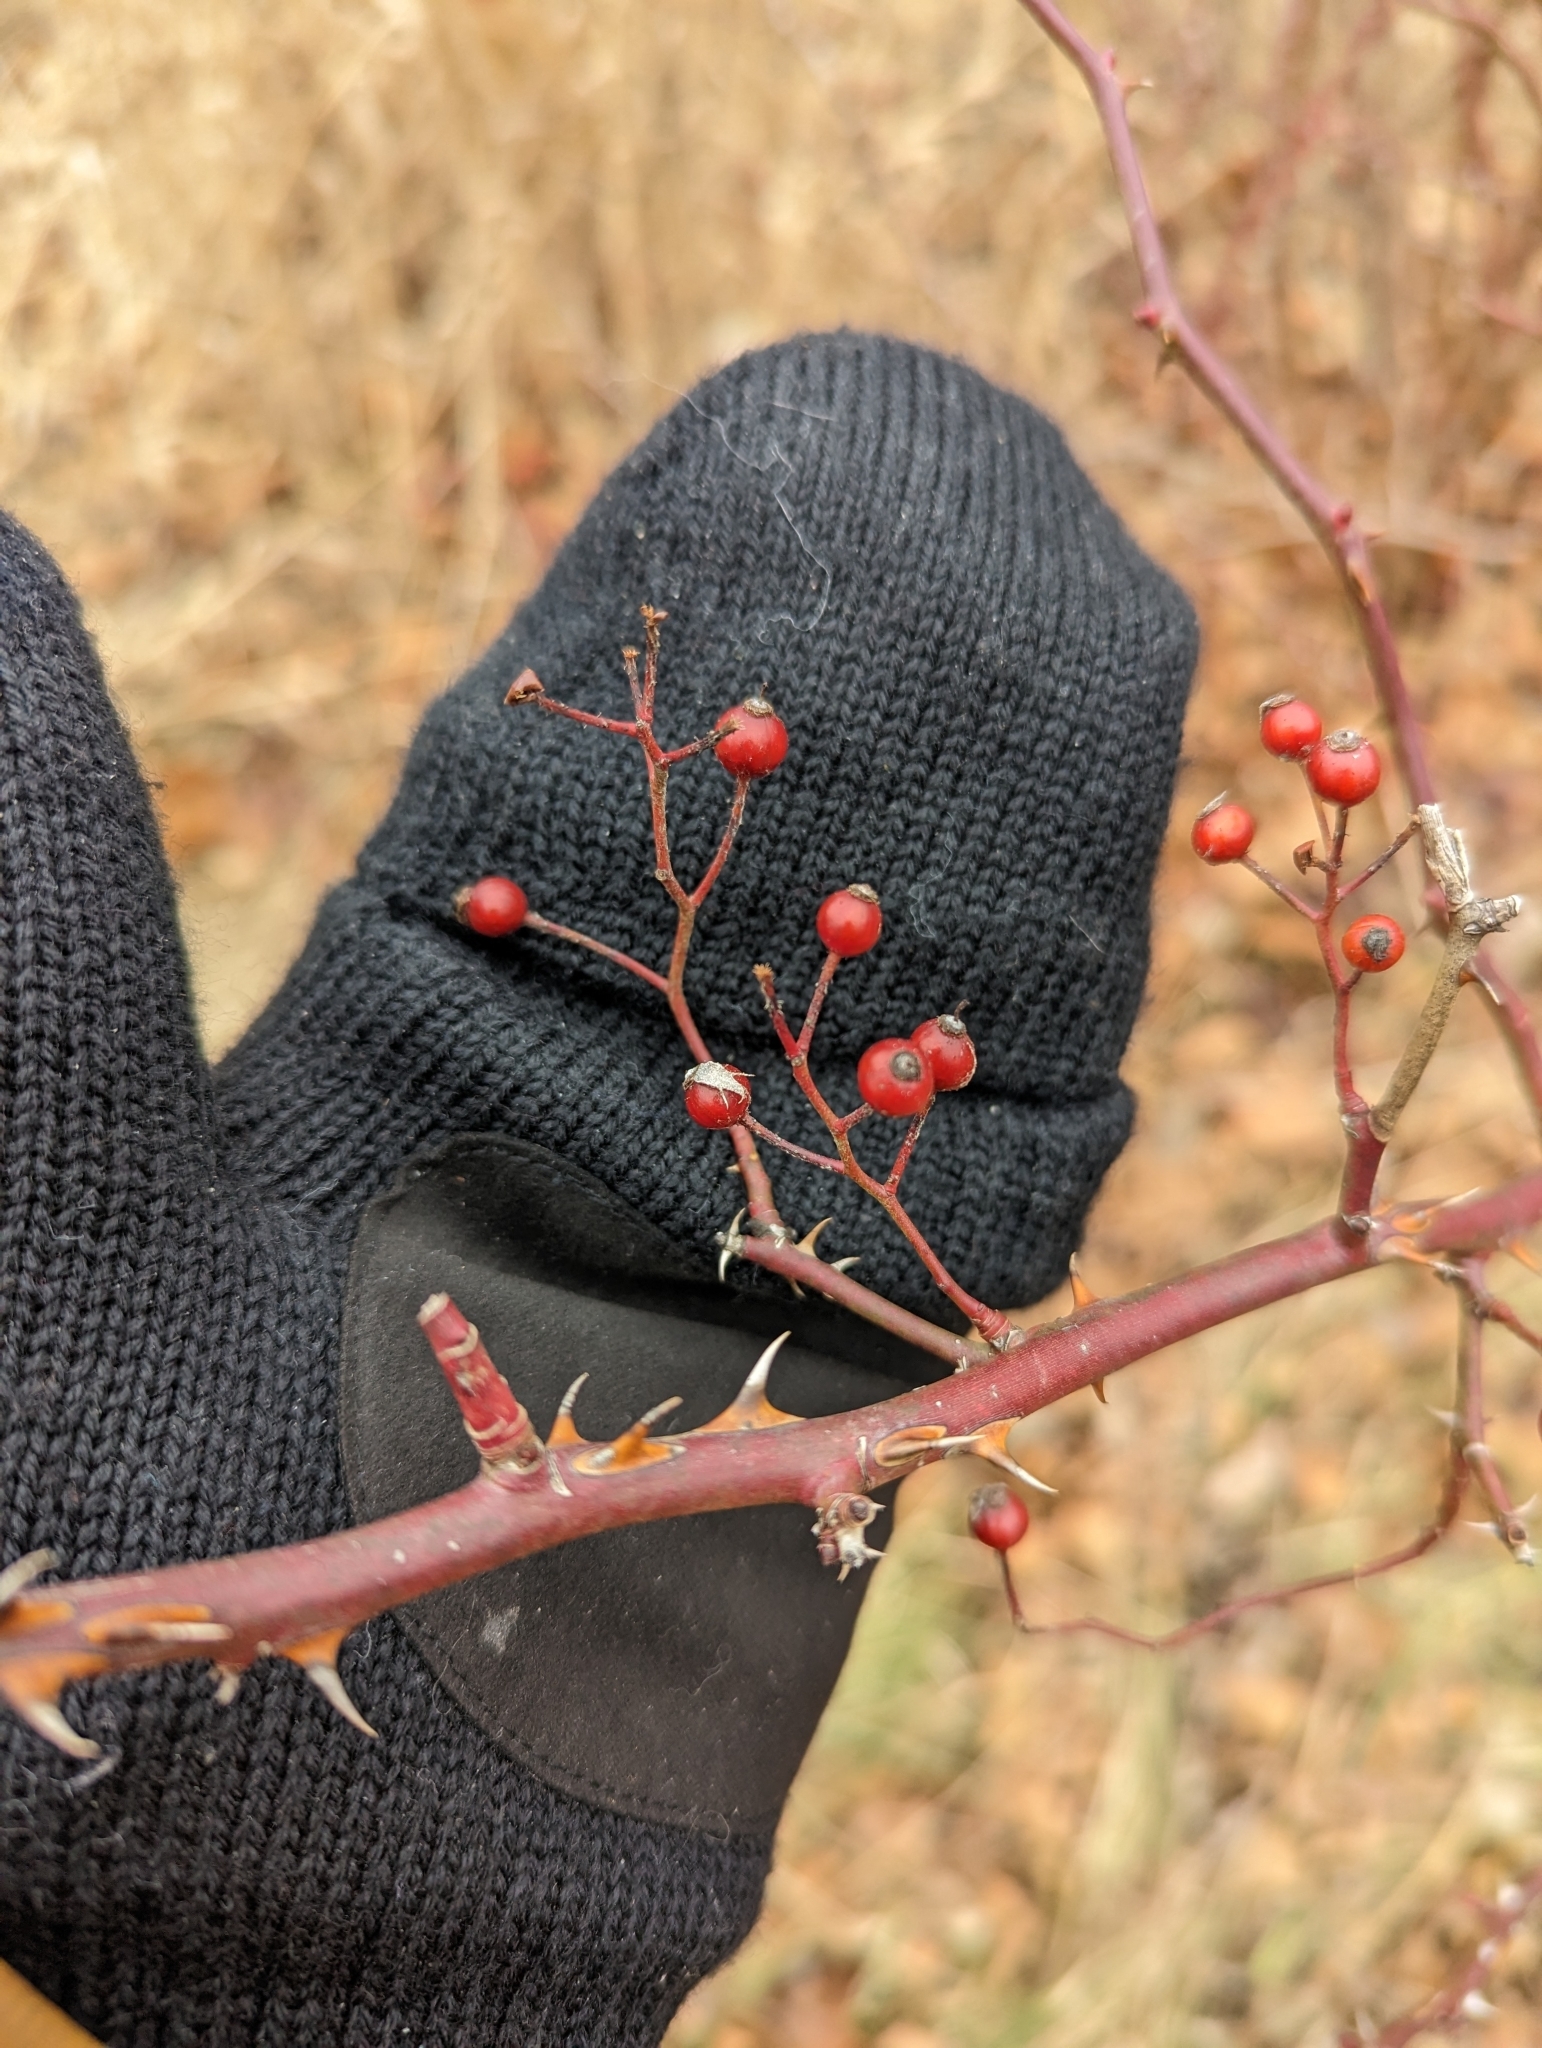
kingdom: Plantae
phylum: Tracheophyta
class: Magnoliopsida
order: Rosales
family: Rosaceae
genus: Rosa
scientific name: Rosa multiflora
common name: Multiflora rose
